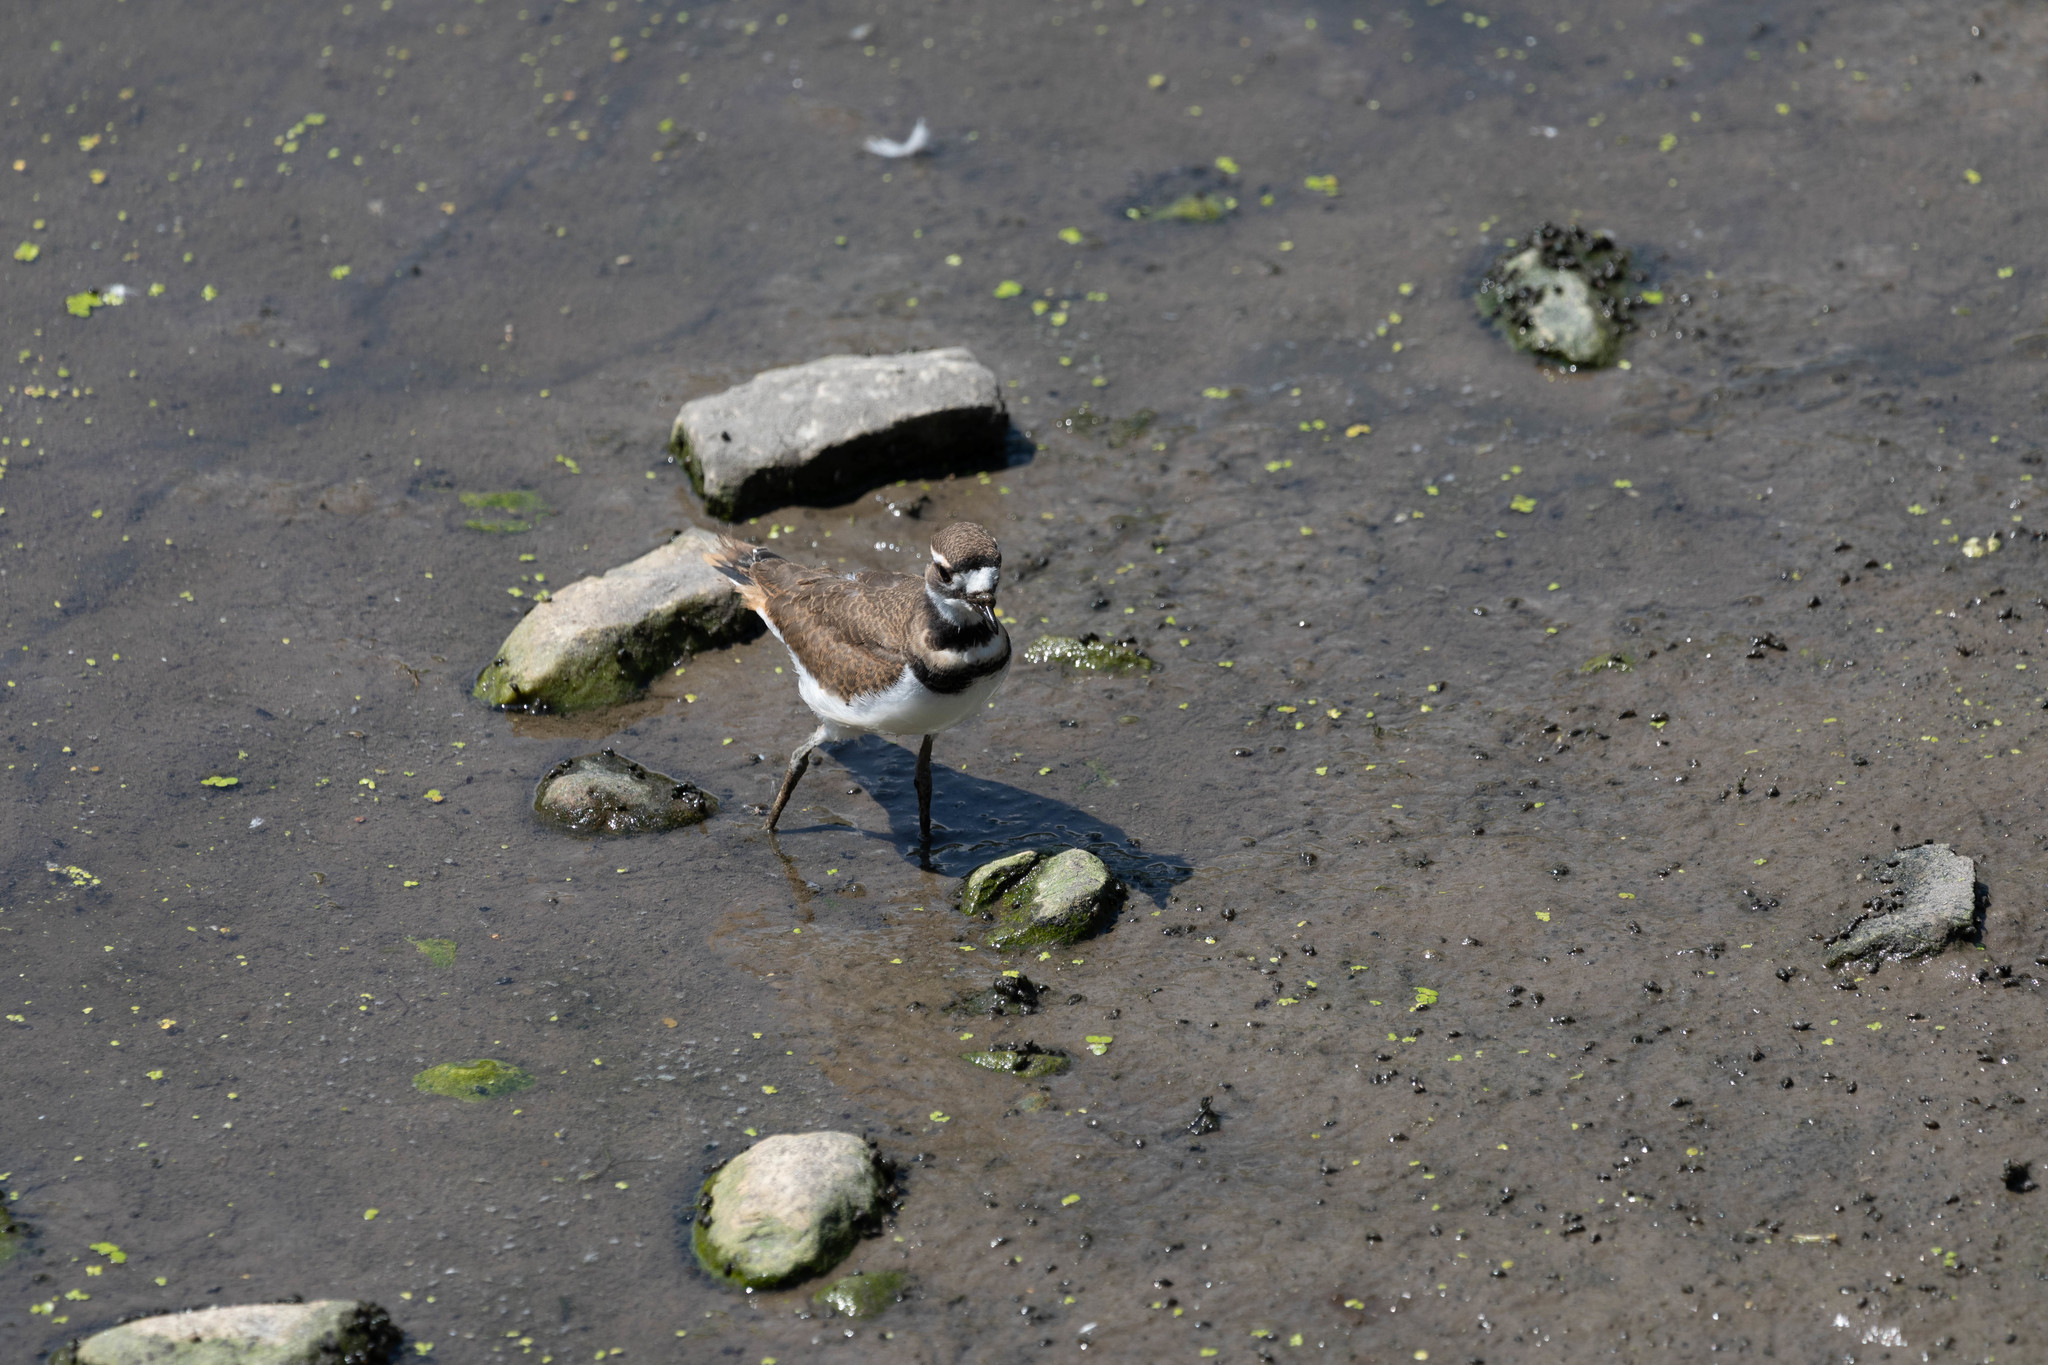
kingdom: Animalia
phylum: Chordata
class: Aves
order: Charadriiformes
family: Charadriidae
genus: Charadrius
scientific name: Charadrius vociferus
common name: Killdeer
